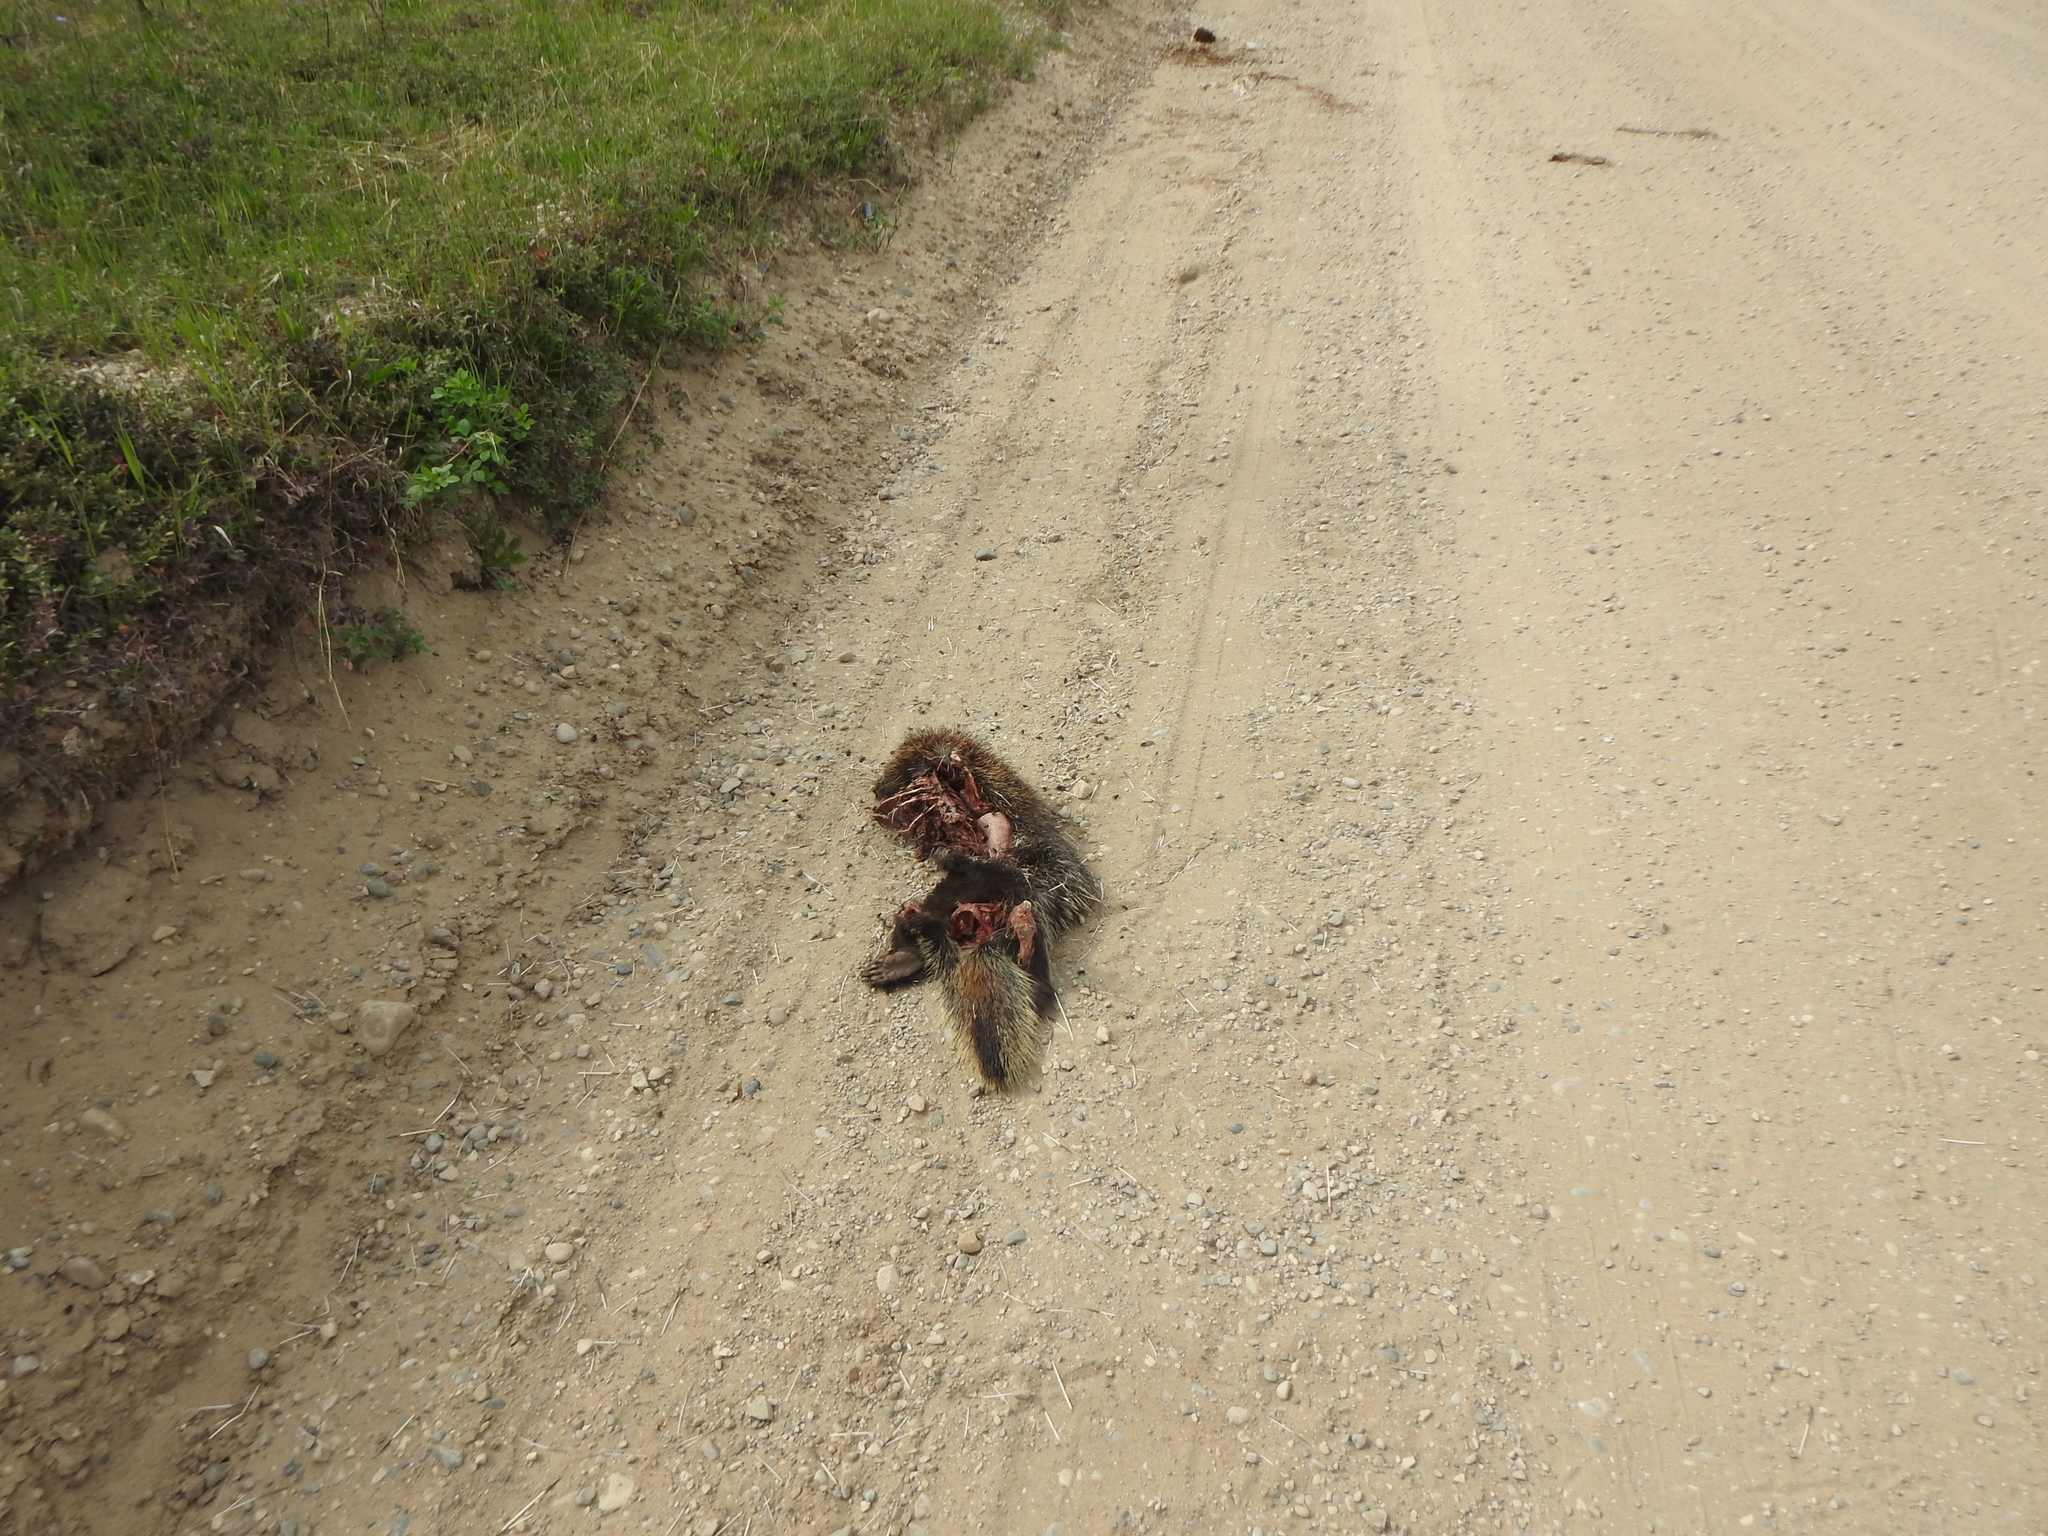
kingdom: Animalia
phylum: Chordata
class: Mammalia
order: Rodentia
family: Erethizontidae
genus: Erethizon
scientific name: Erethizon dorsatus
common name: North american porcupine
